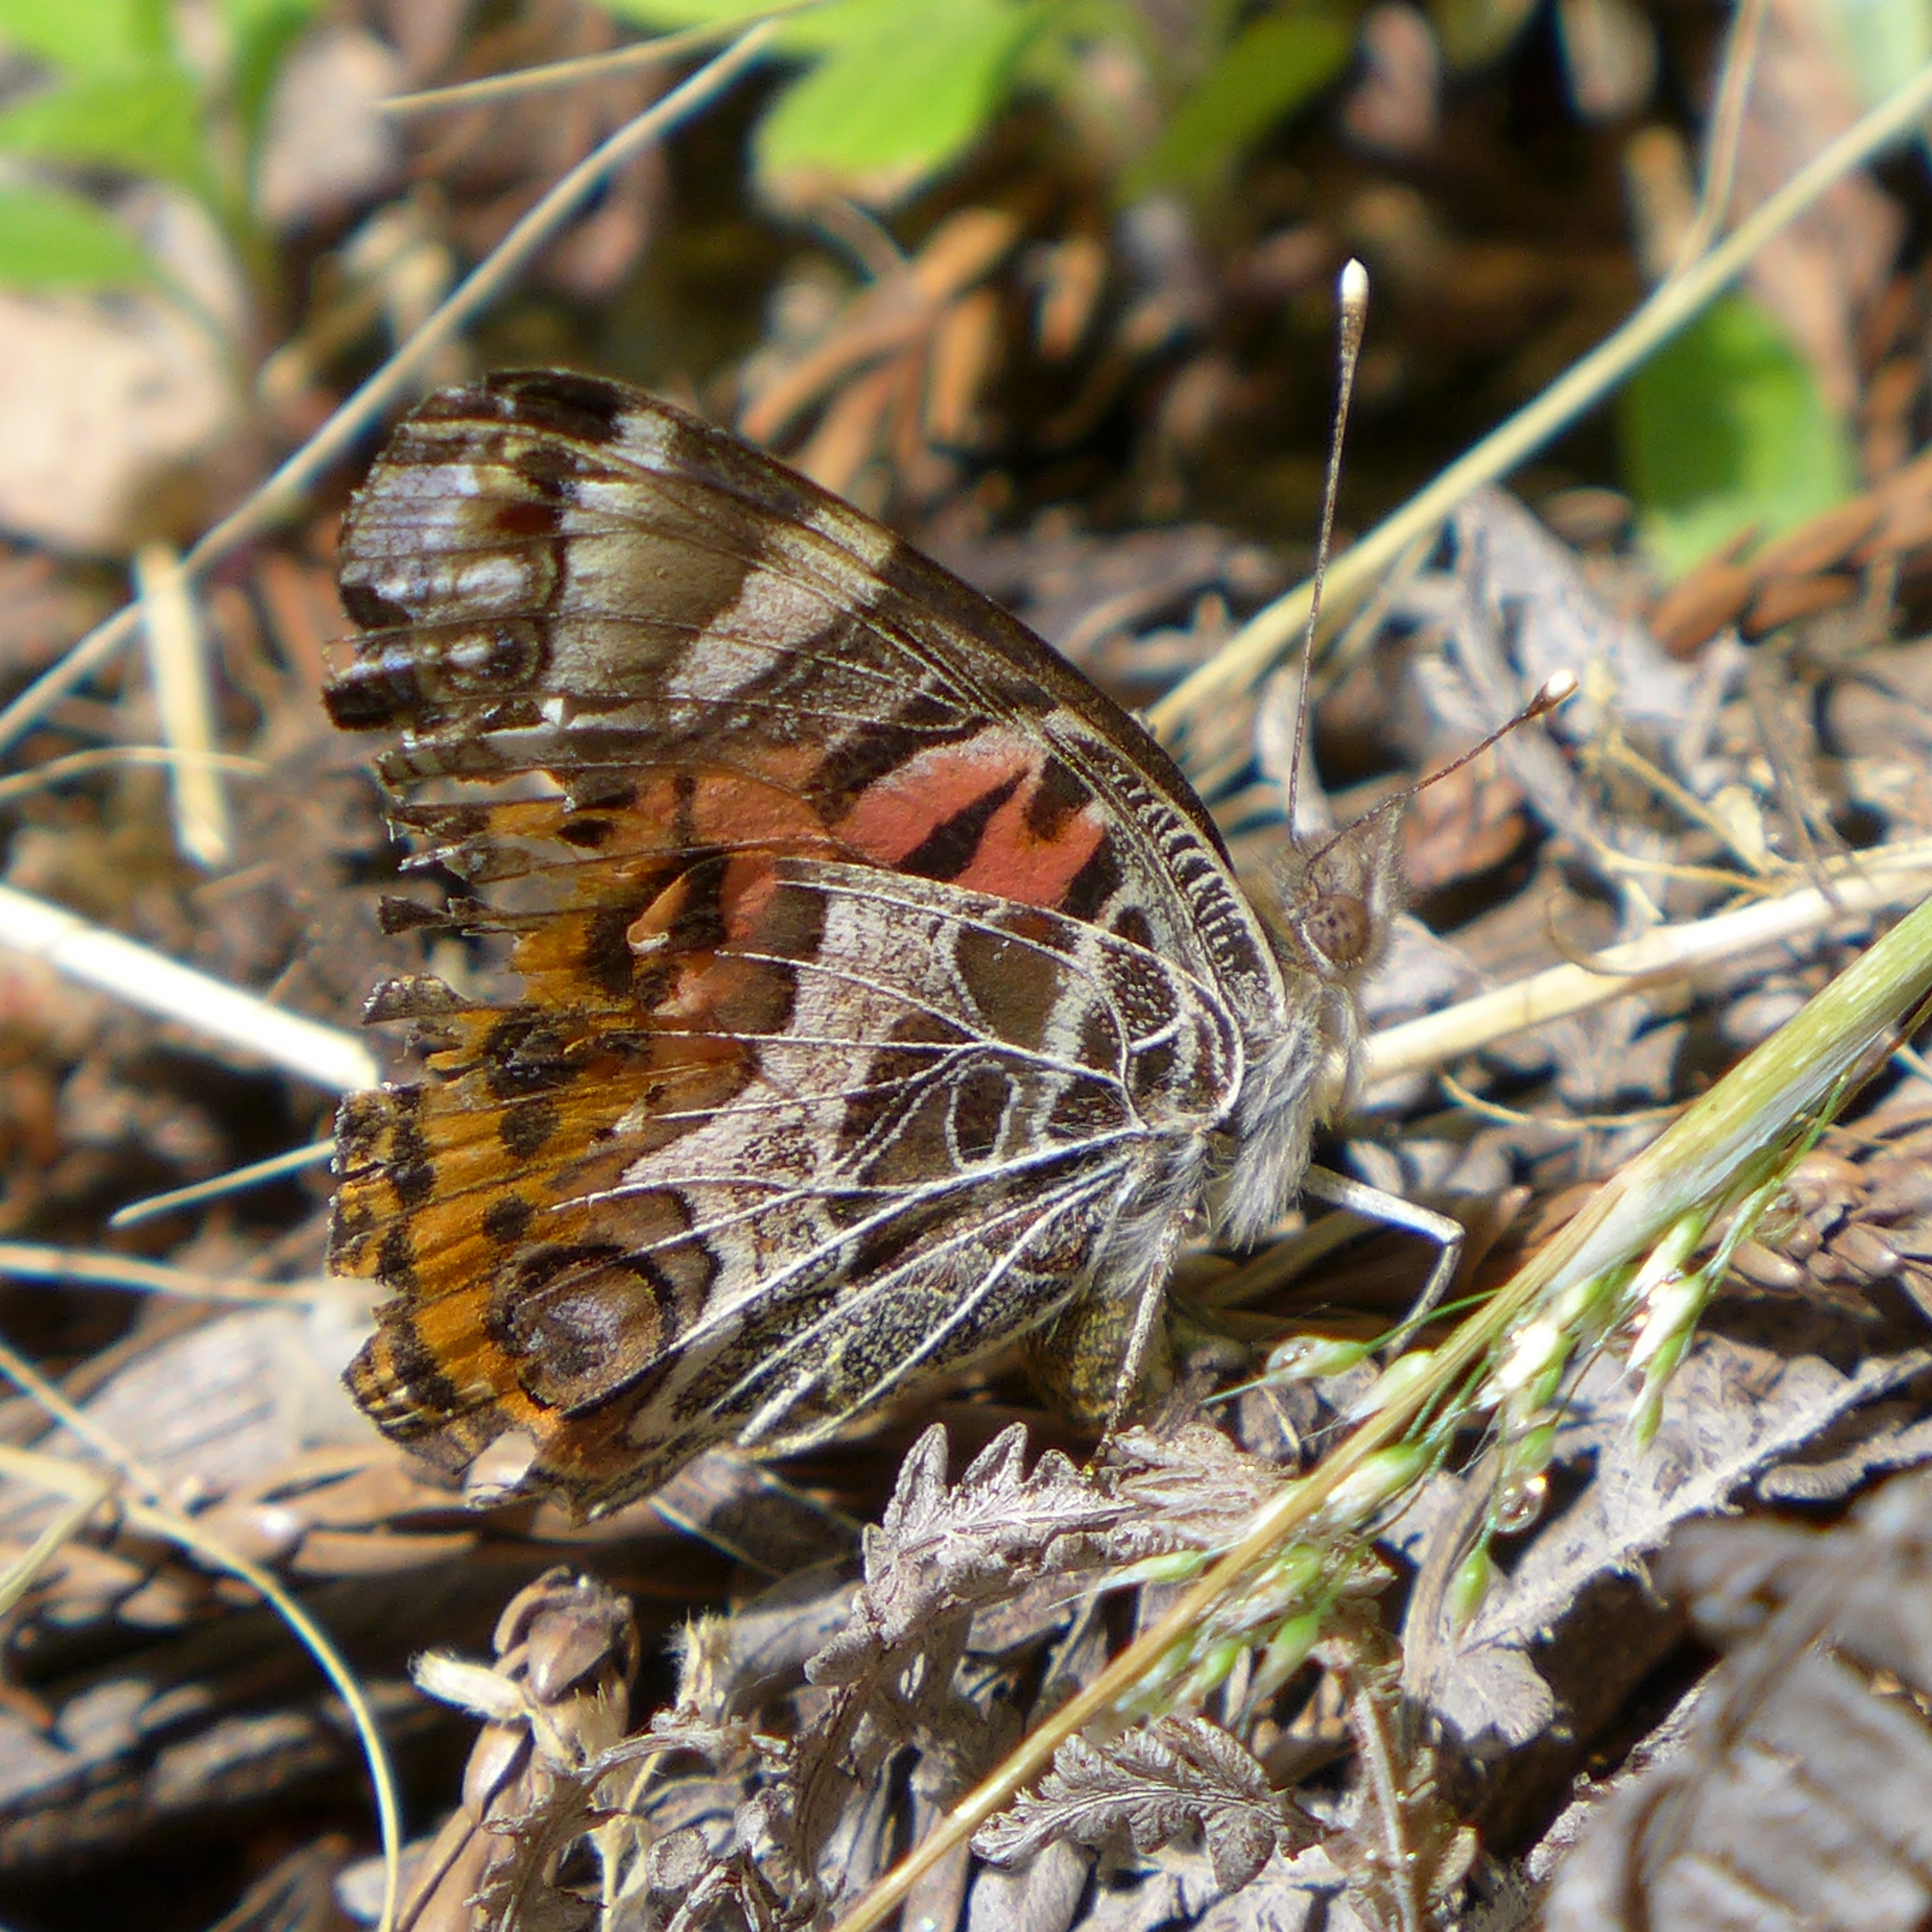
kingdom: Animalia
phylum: Arthropoda
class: Insecta
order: Lepidoptera
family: Nymphalidae
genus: Vanessa
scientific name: Vanessa virginiensis
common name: American lady
